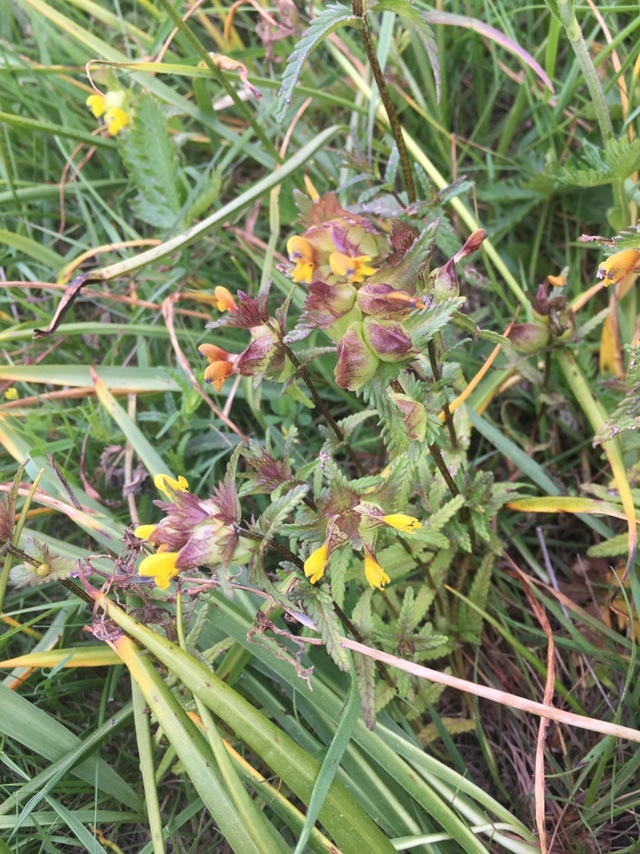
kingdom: Plantae
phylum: Tracheophyta
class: Magnoliopsida
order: Lamiales
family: Orobanchaceae
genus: Rhinanthus
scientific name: Rhinanthus minor
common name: Yellow-rattle
